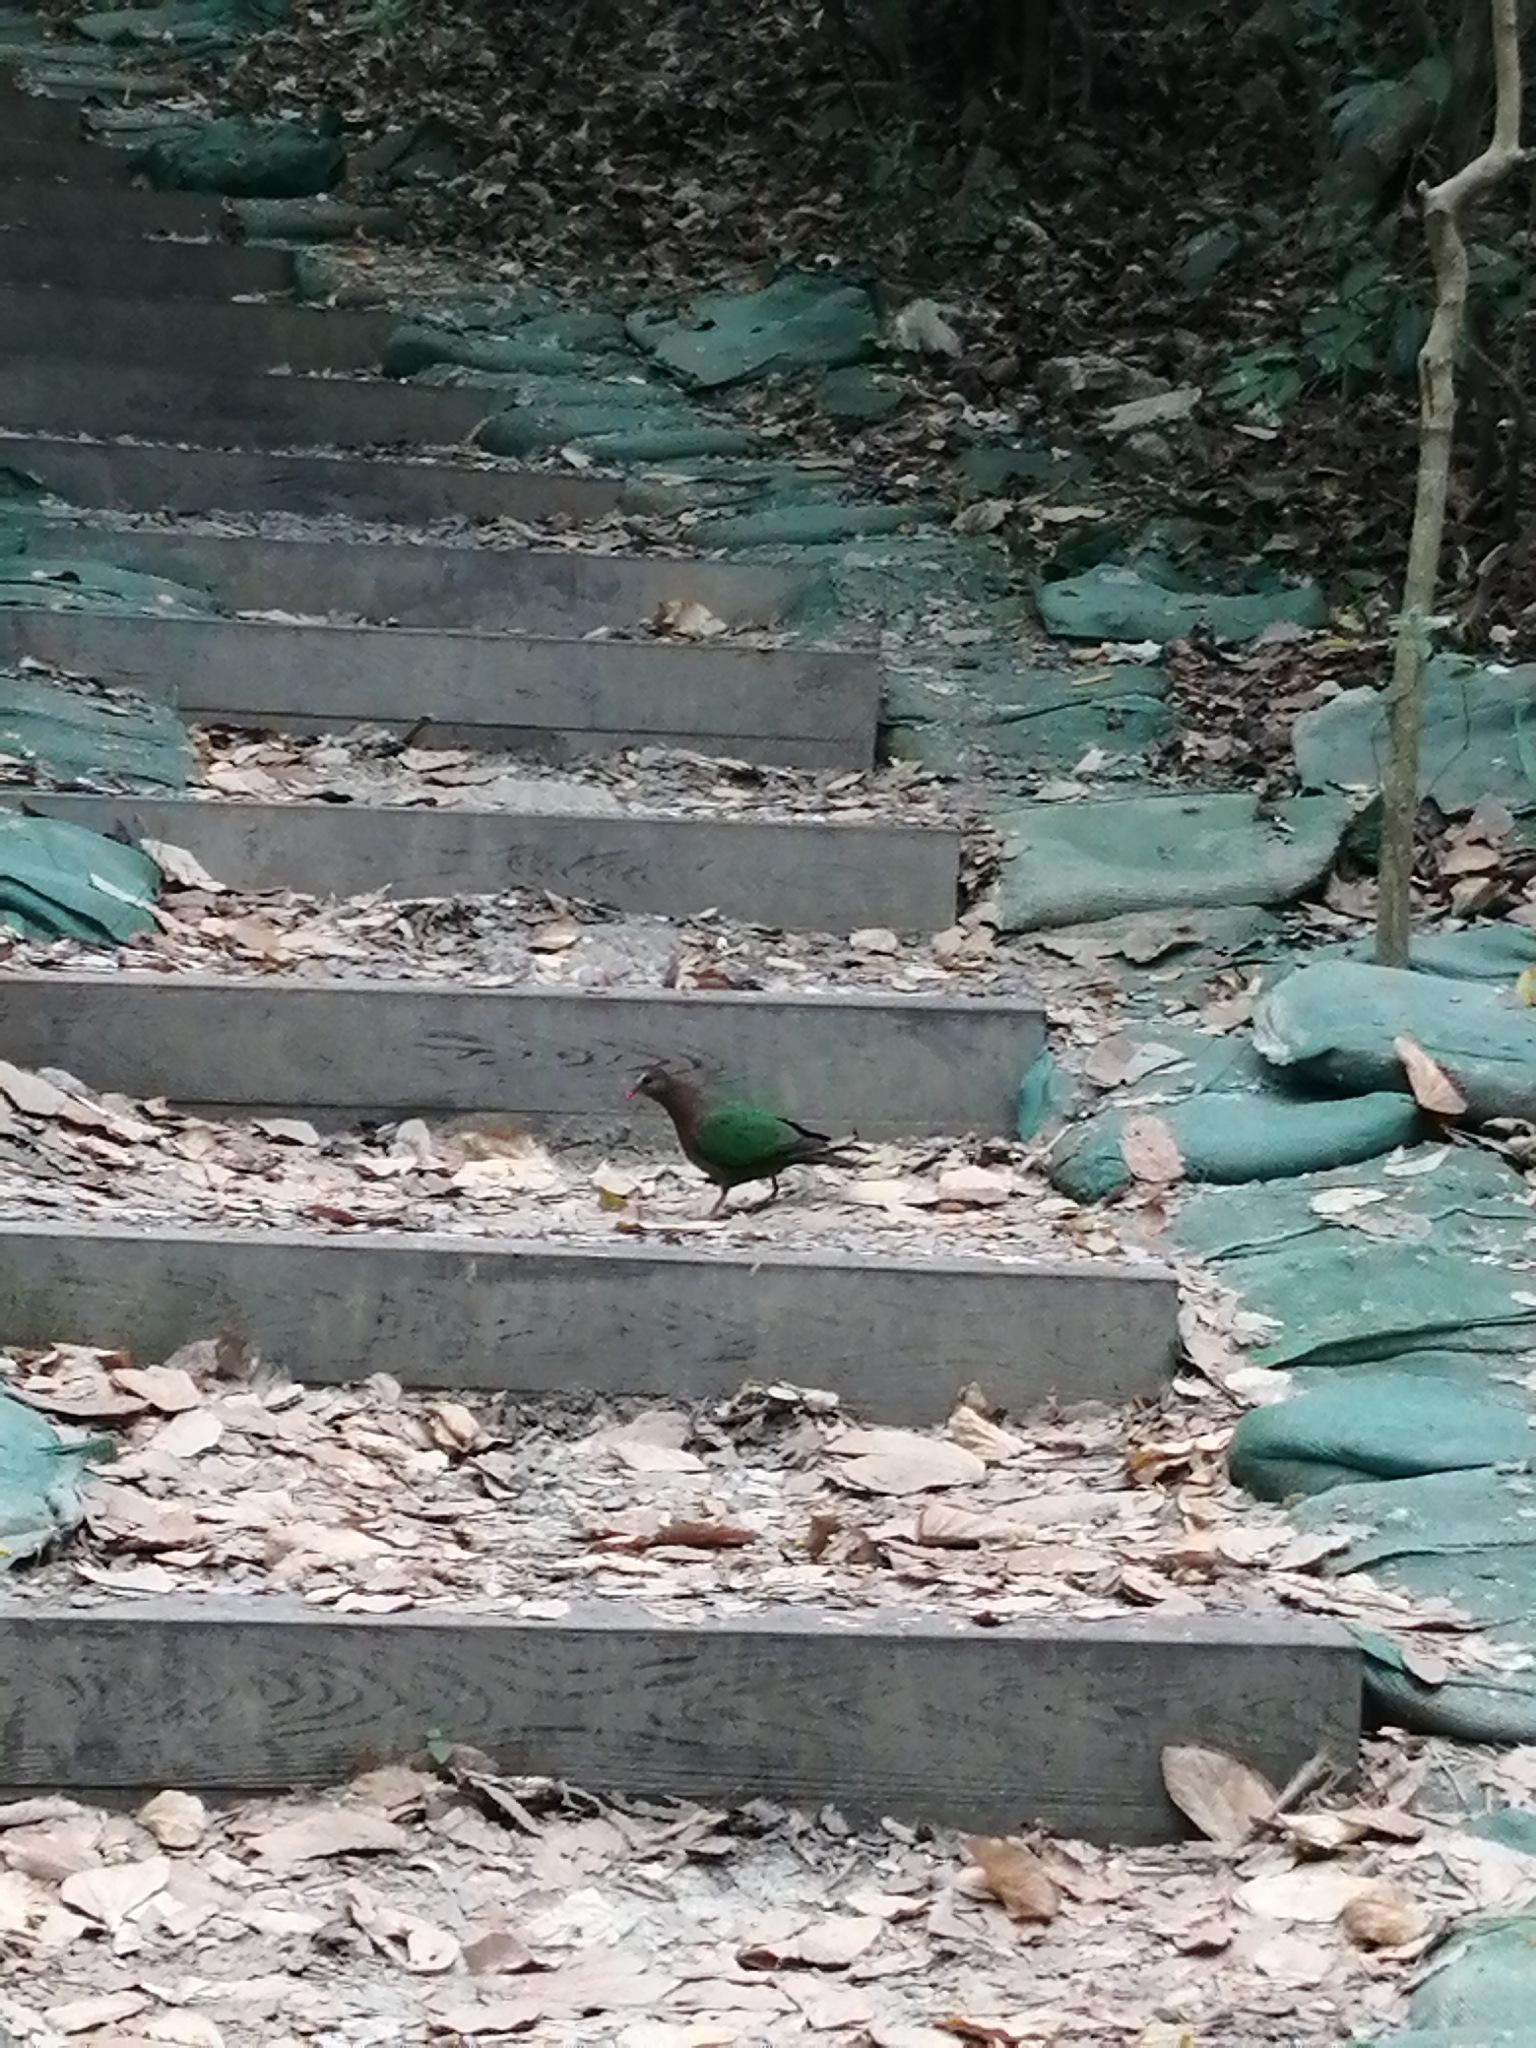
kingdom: Animalia
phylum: Chordata
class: Aves
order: Columbiformes
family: Columbidae
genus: Chalcophaps
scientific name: Chalcophaps indica
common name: Common emerald dove
